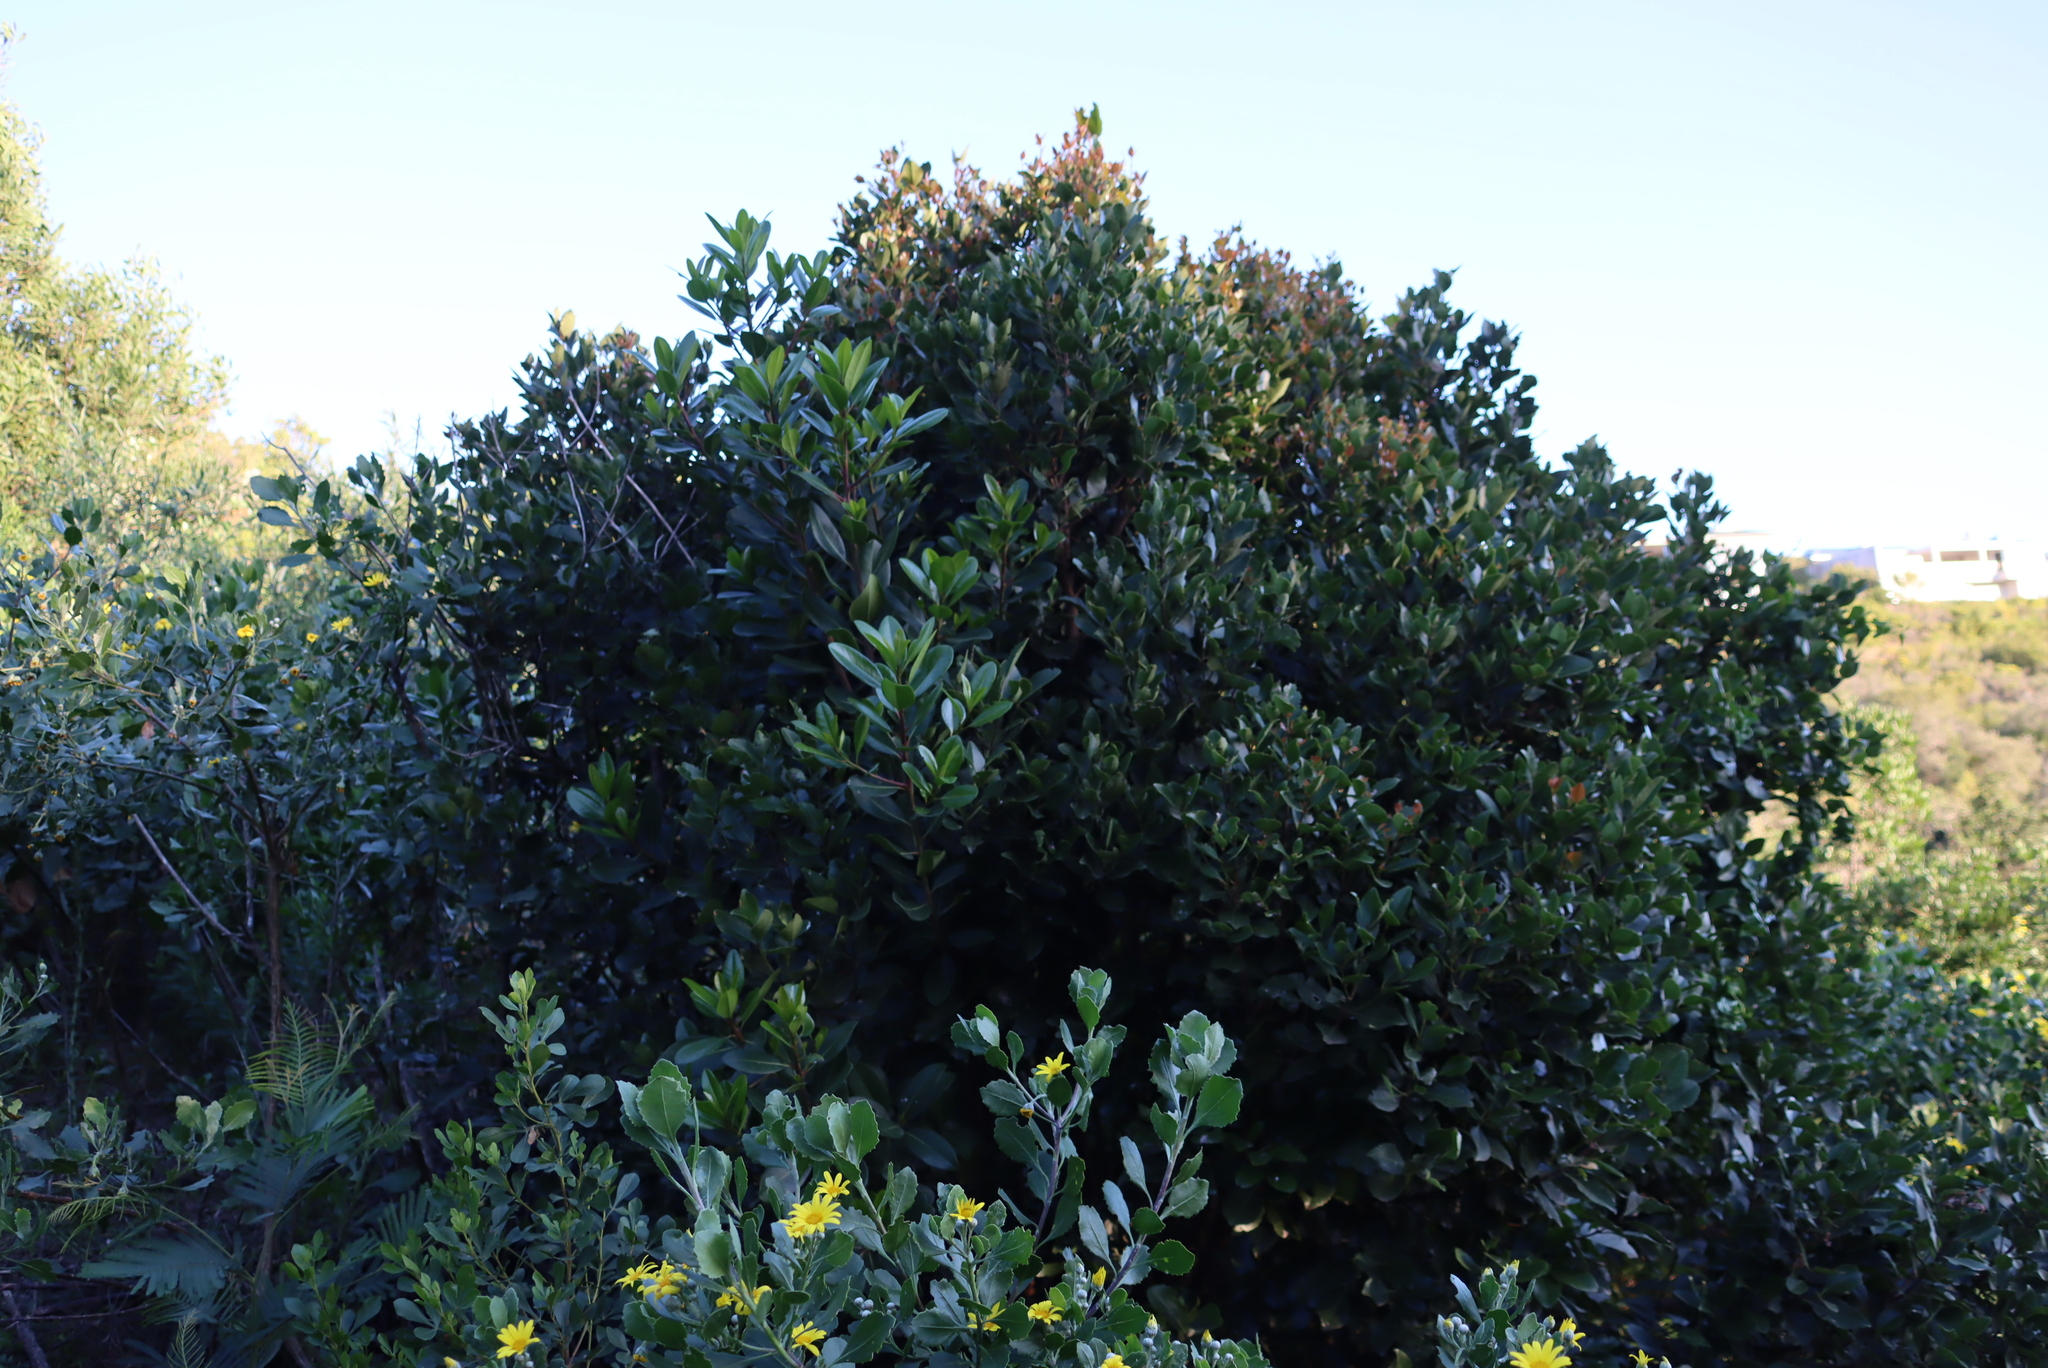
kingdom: Plantae
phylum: Tracheophyta
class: Magnoliopsida
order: Ericales
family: Sapotaceae
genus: Sideroxylon
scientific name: Sideroxylon inerme
